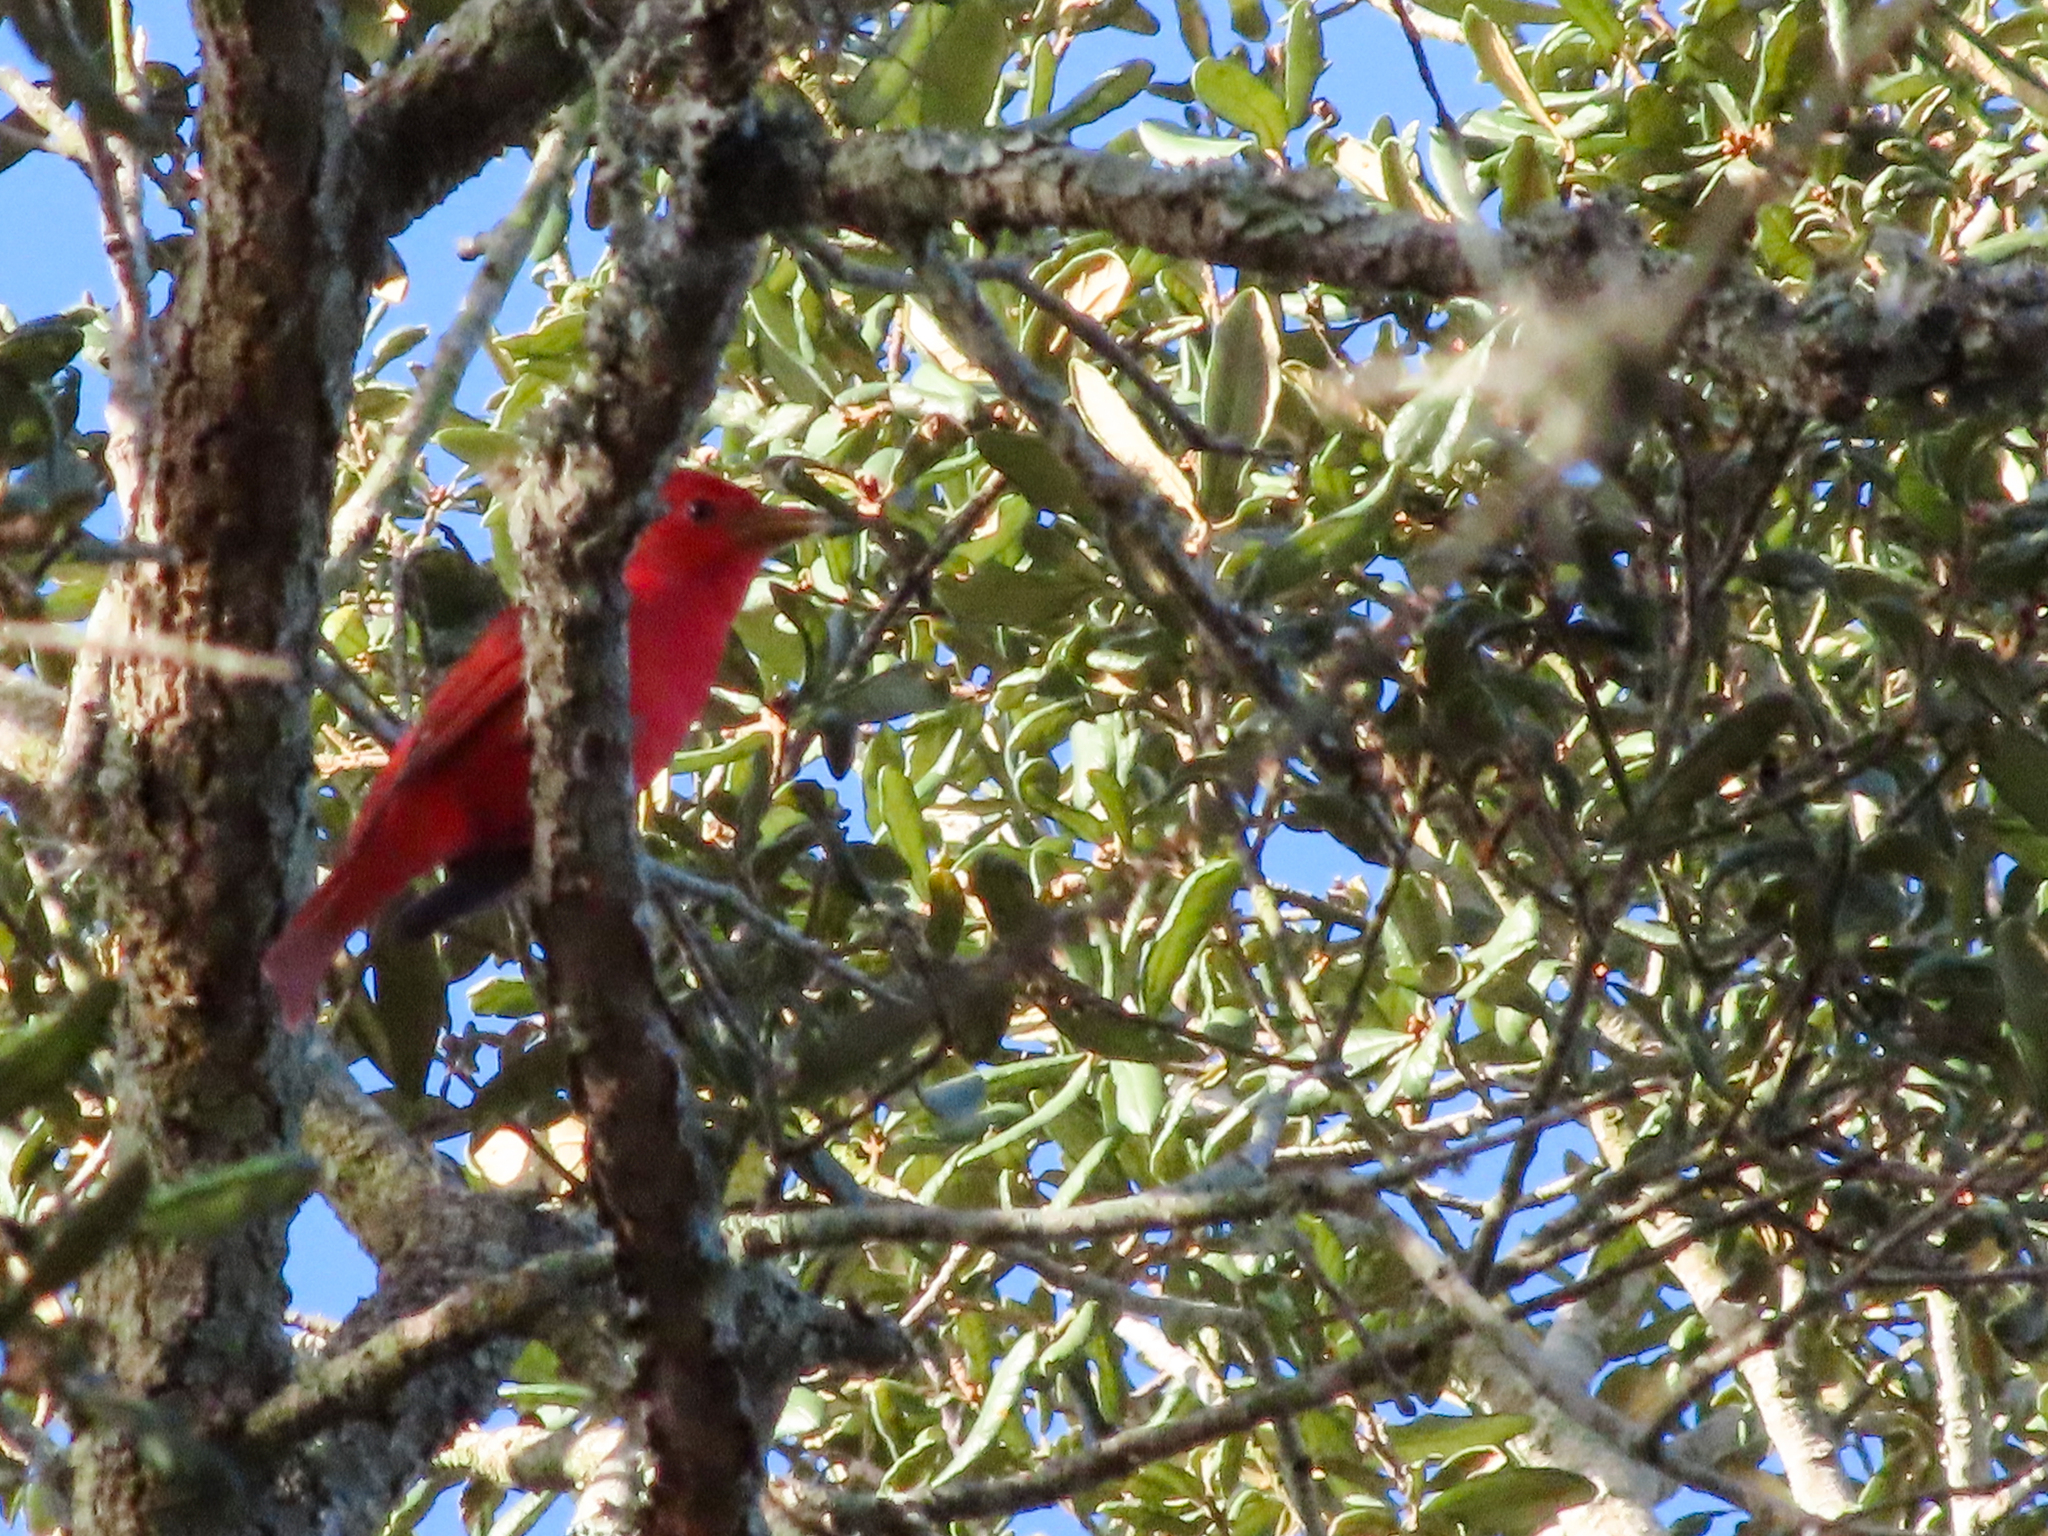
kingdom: Animalia
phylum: Chordata
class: Aves
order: Passeriformes
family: Cardinalidae
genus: Piranga
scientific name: Piranga rubra
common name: Summer tanager
